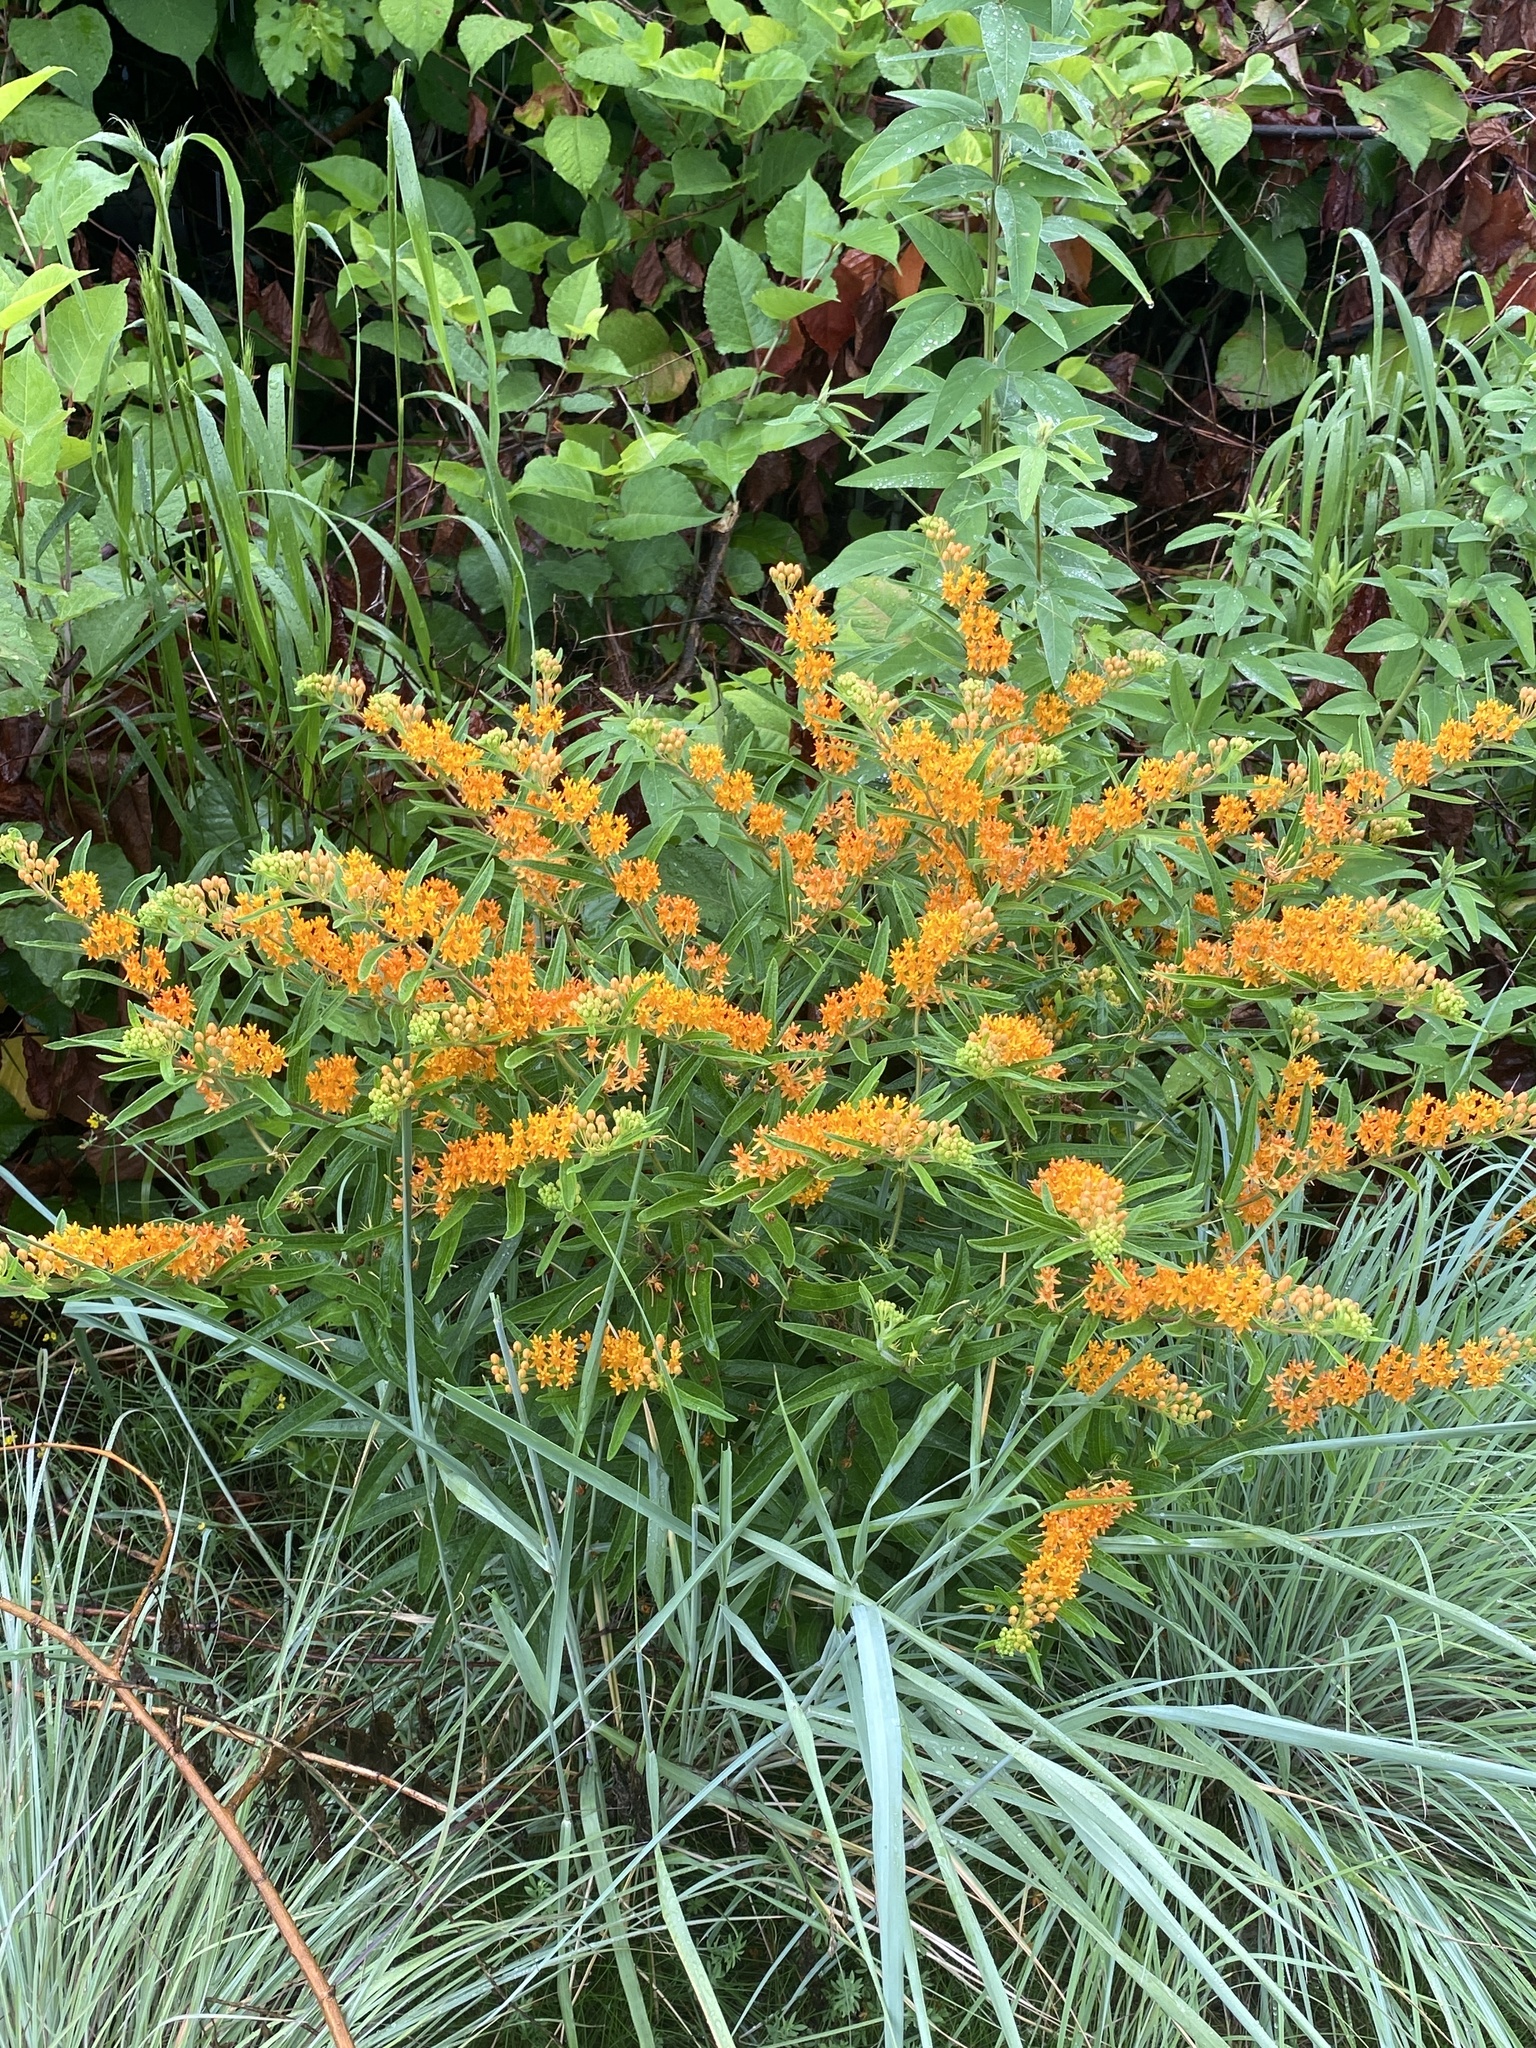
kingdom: Plantae
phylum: Tracheophyta
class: Magnoliopsida
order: Gentianales
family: Apocynaceae
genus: Asclepias
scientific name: Asclepias tuberosa
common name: Butterfly milkweed
